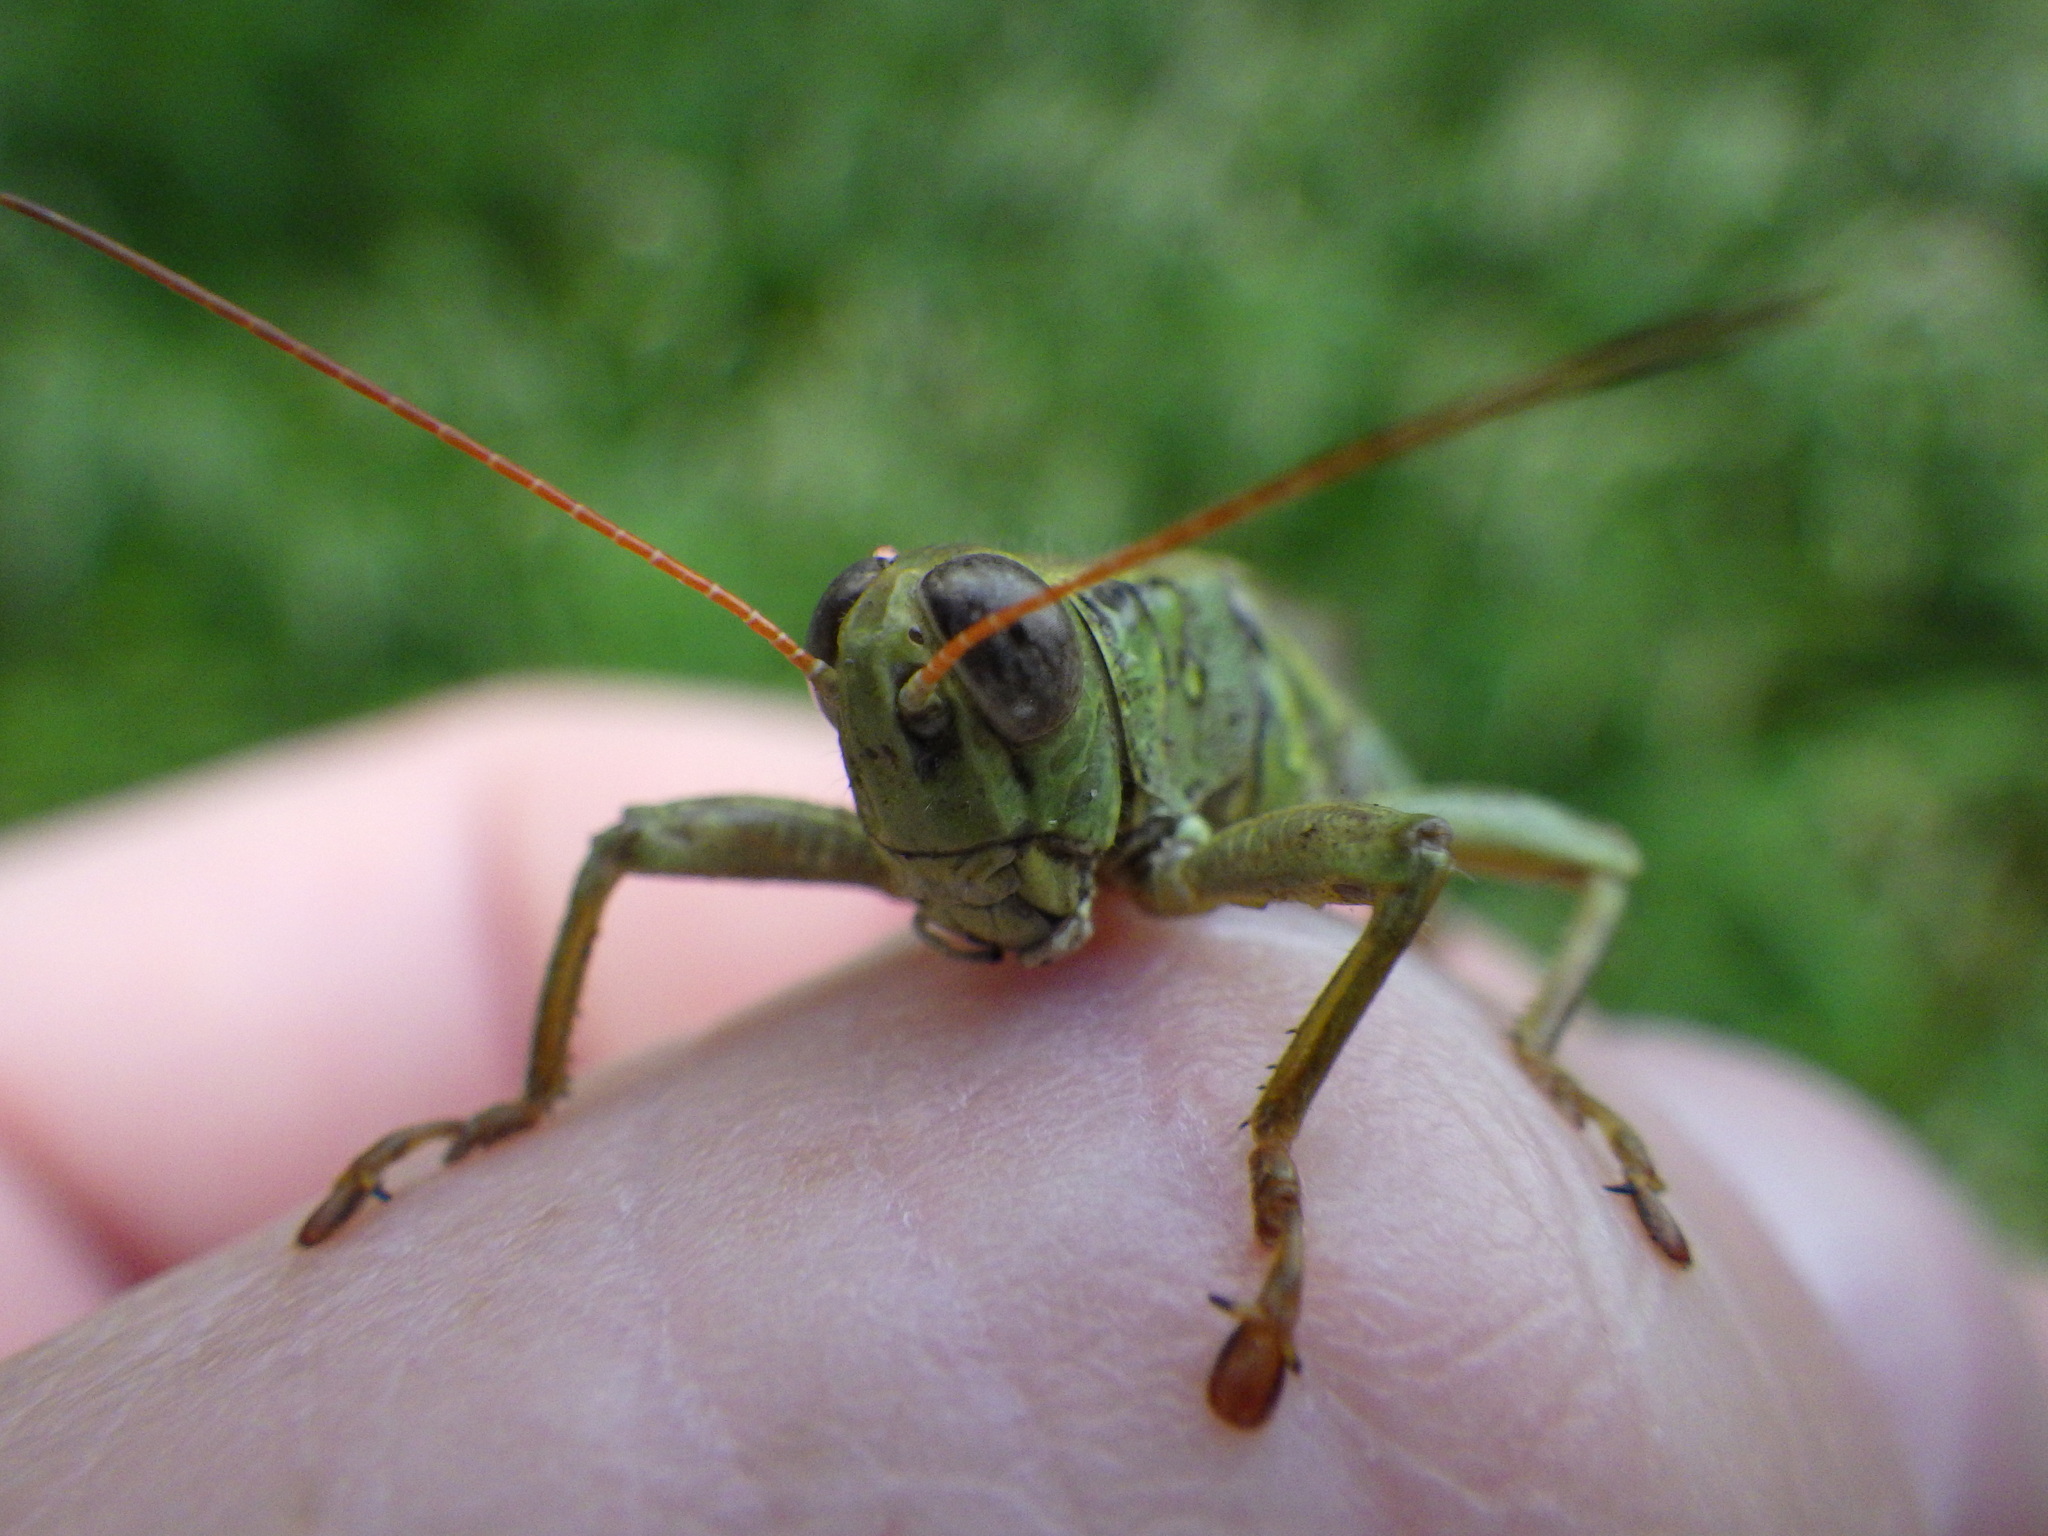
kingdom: Animalia
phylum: Arthropoda
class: Insecta
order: Orthoptera
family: Acrididae
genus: Melanoplus
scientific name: Melanoplus yarrowii
